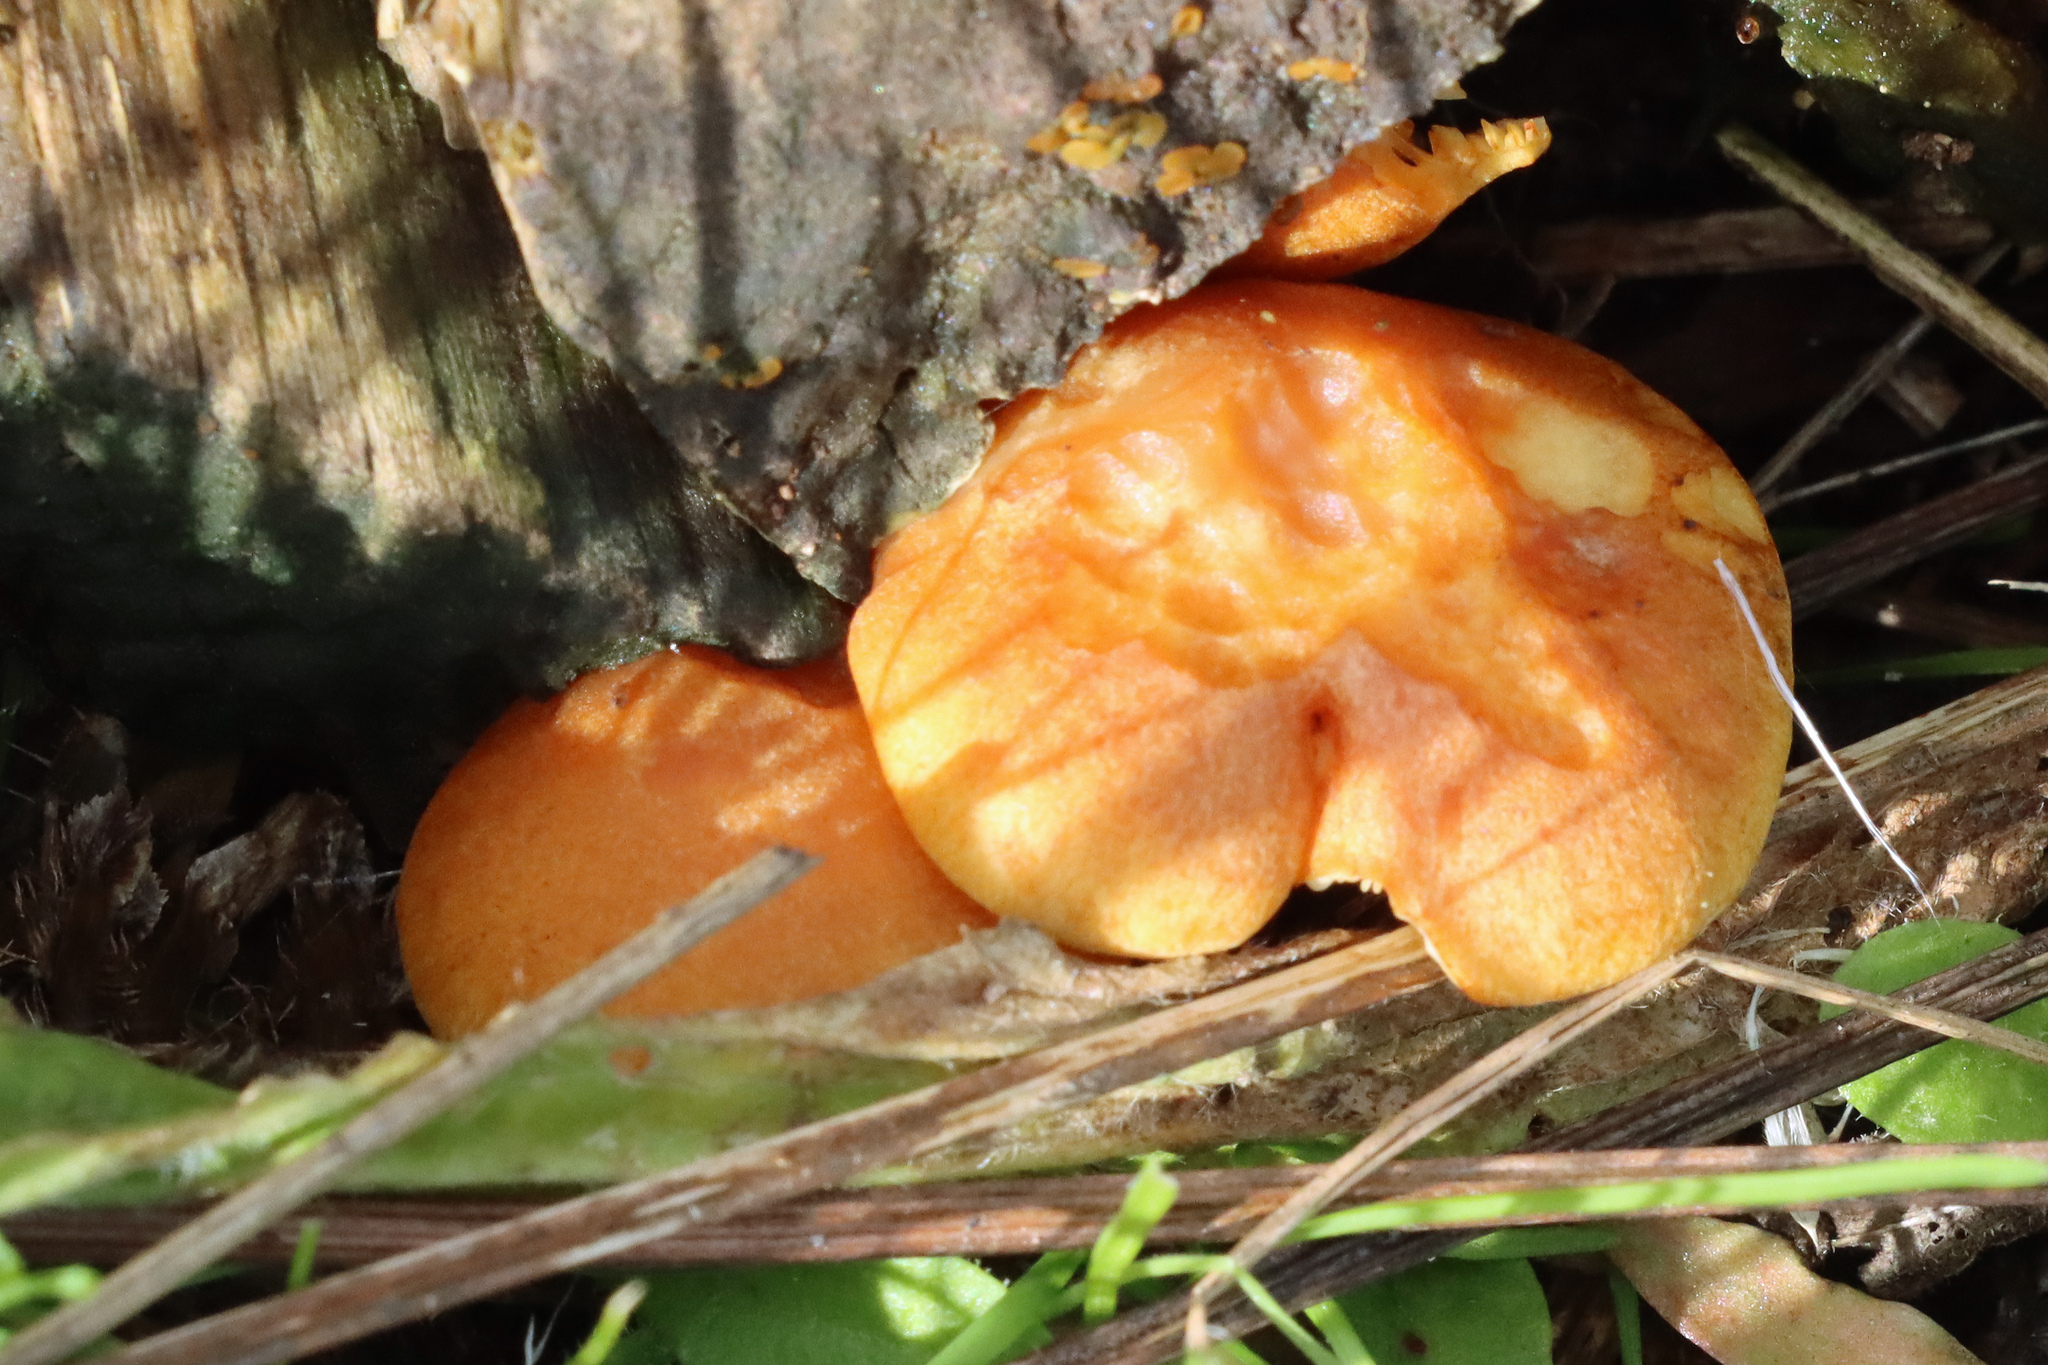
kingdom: Fungi
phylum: Basidiomycota
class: Agaricomycetes
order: Agaricales
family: Hymenogastraceae
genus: Gymnopilus
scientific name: Gymnopilus penetrans
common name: Common rustgill
